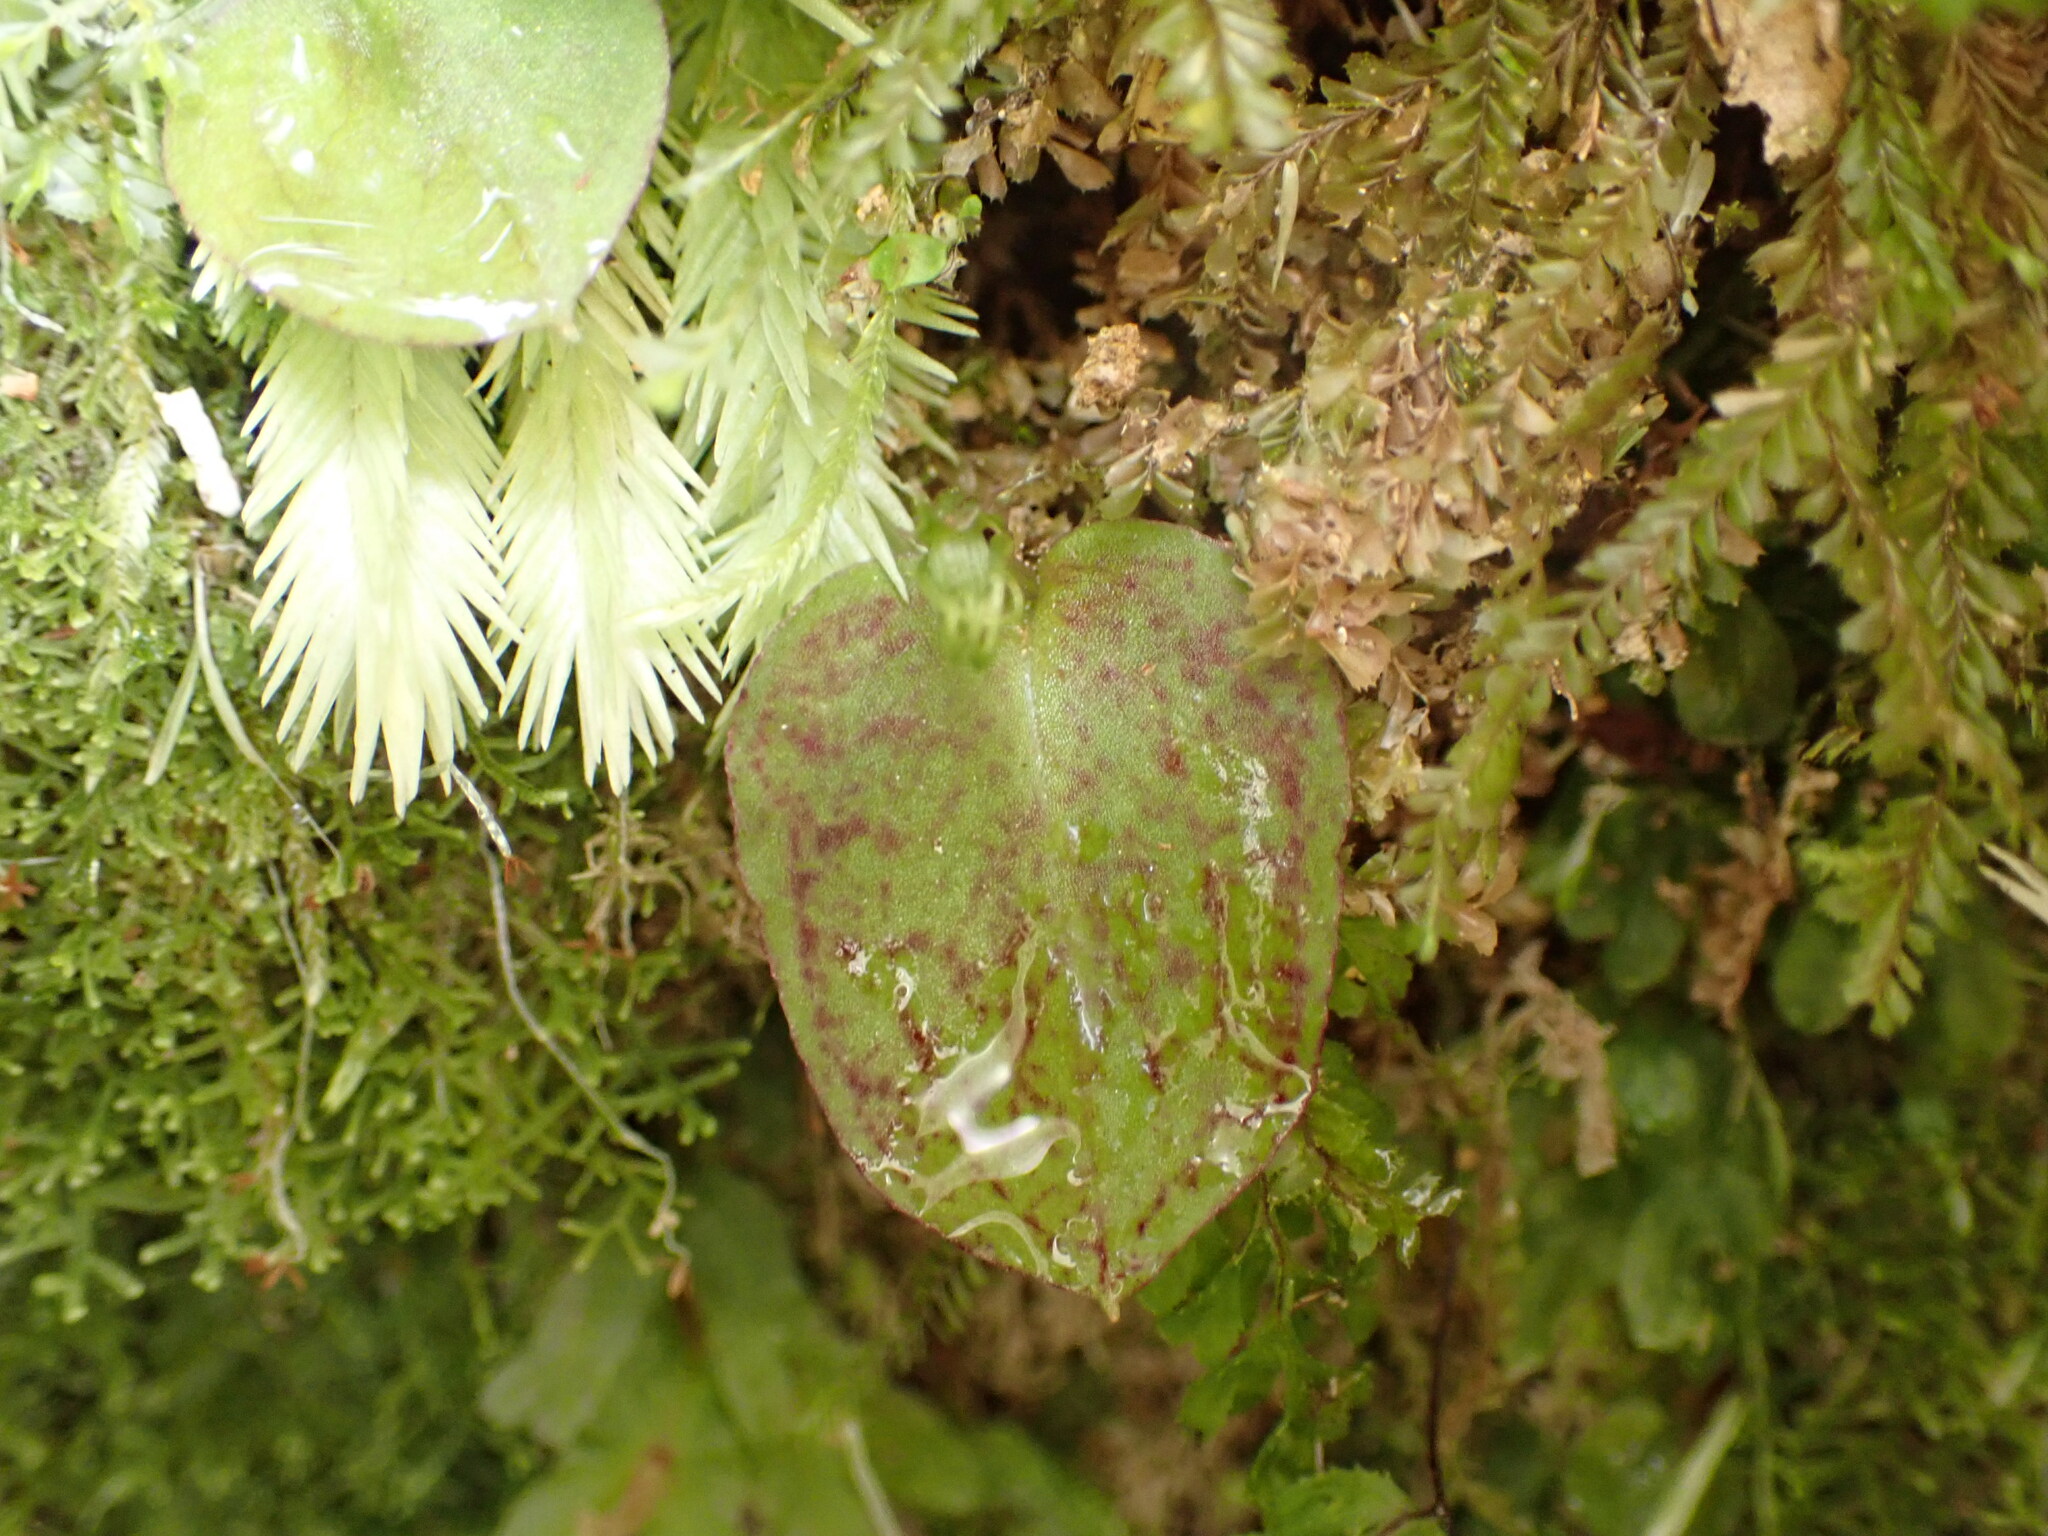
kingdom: Plantae
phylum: Tracheophyta
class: Liliopsida
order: Asparagales
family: Orchidaceae
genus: Corybas
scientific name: Corybas oblongus
